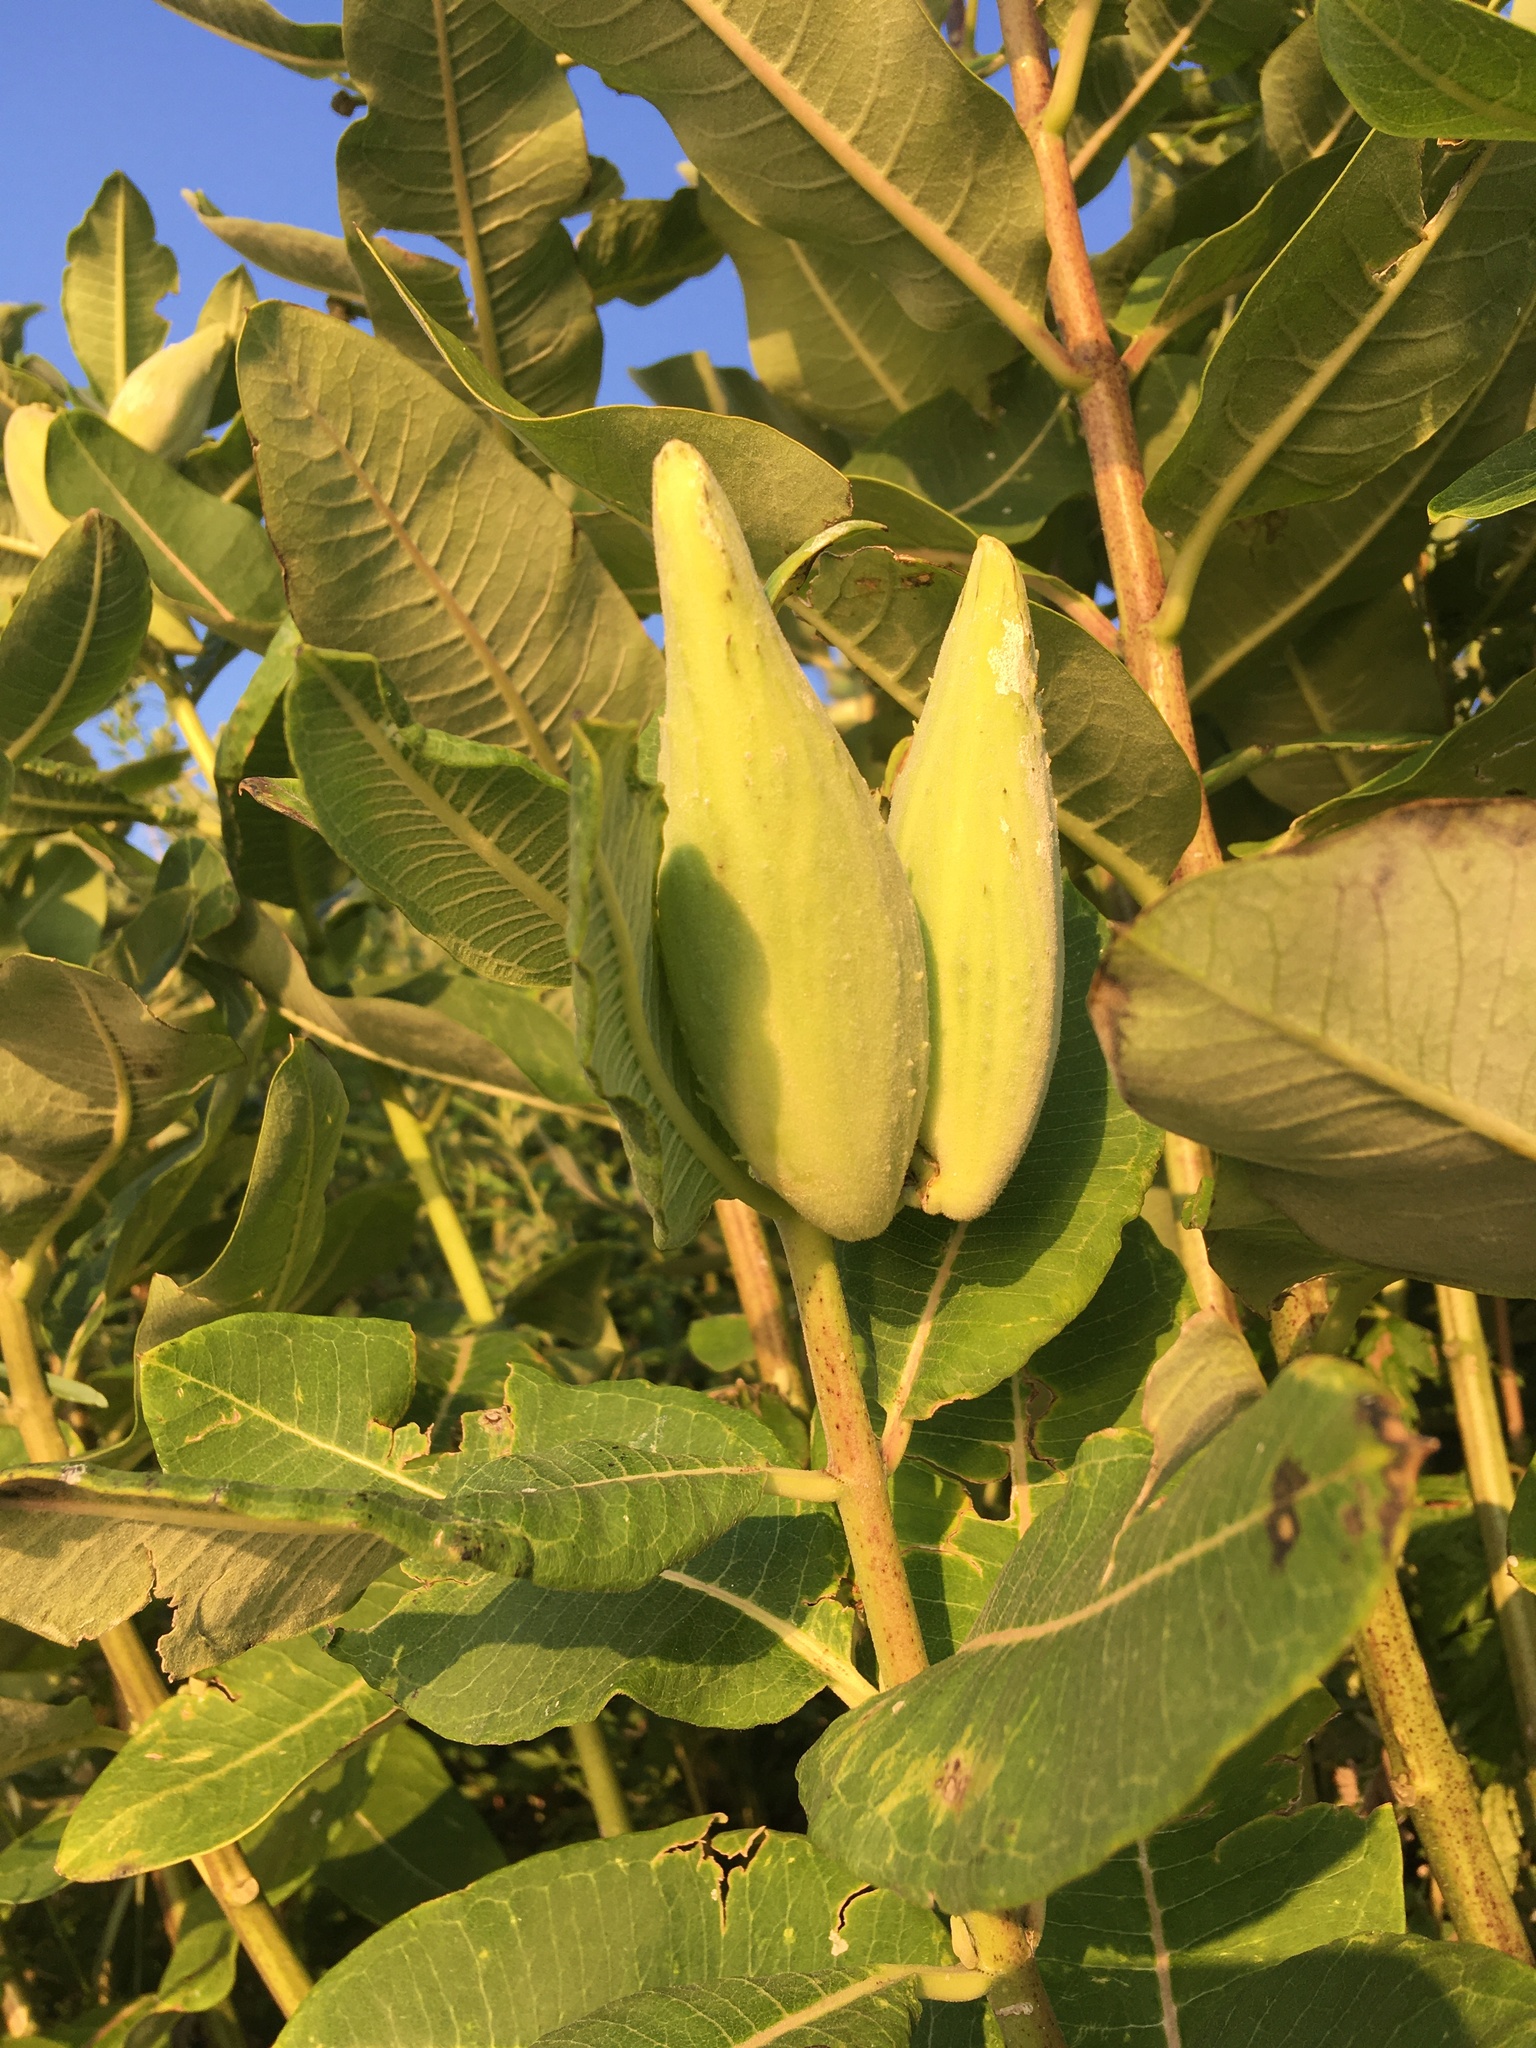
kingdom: Plantae
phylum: Tracheophyta
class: Magnoliopsida
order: Gentianales
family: Apocynaceae
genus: Asclepias
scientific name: Asclepias syriaca
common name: Common milkweed
